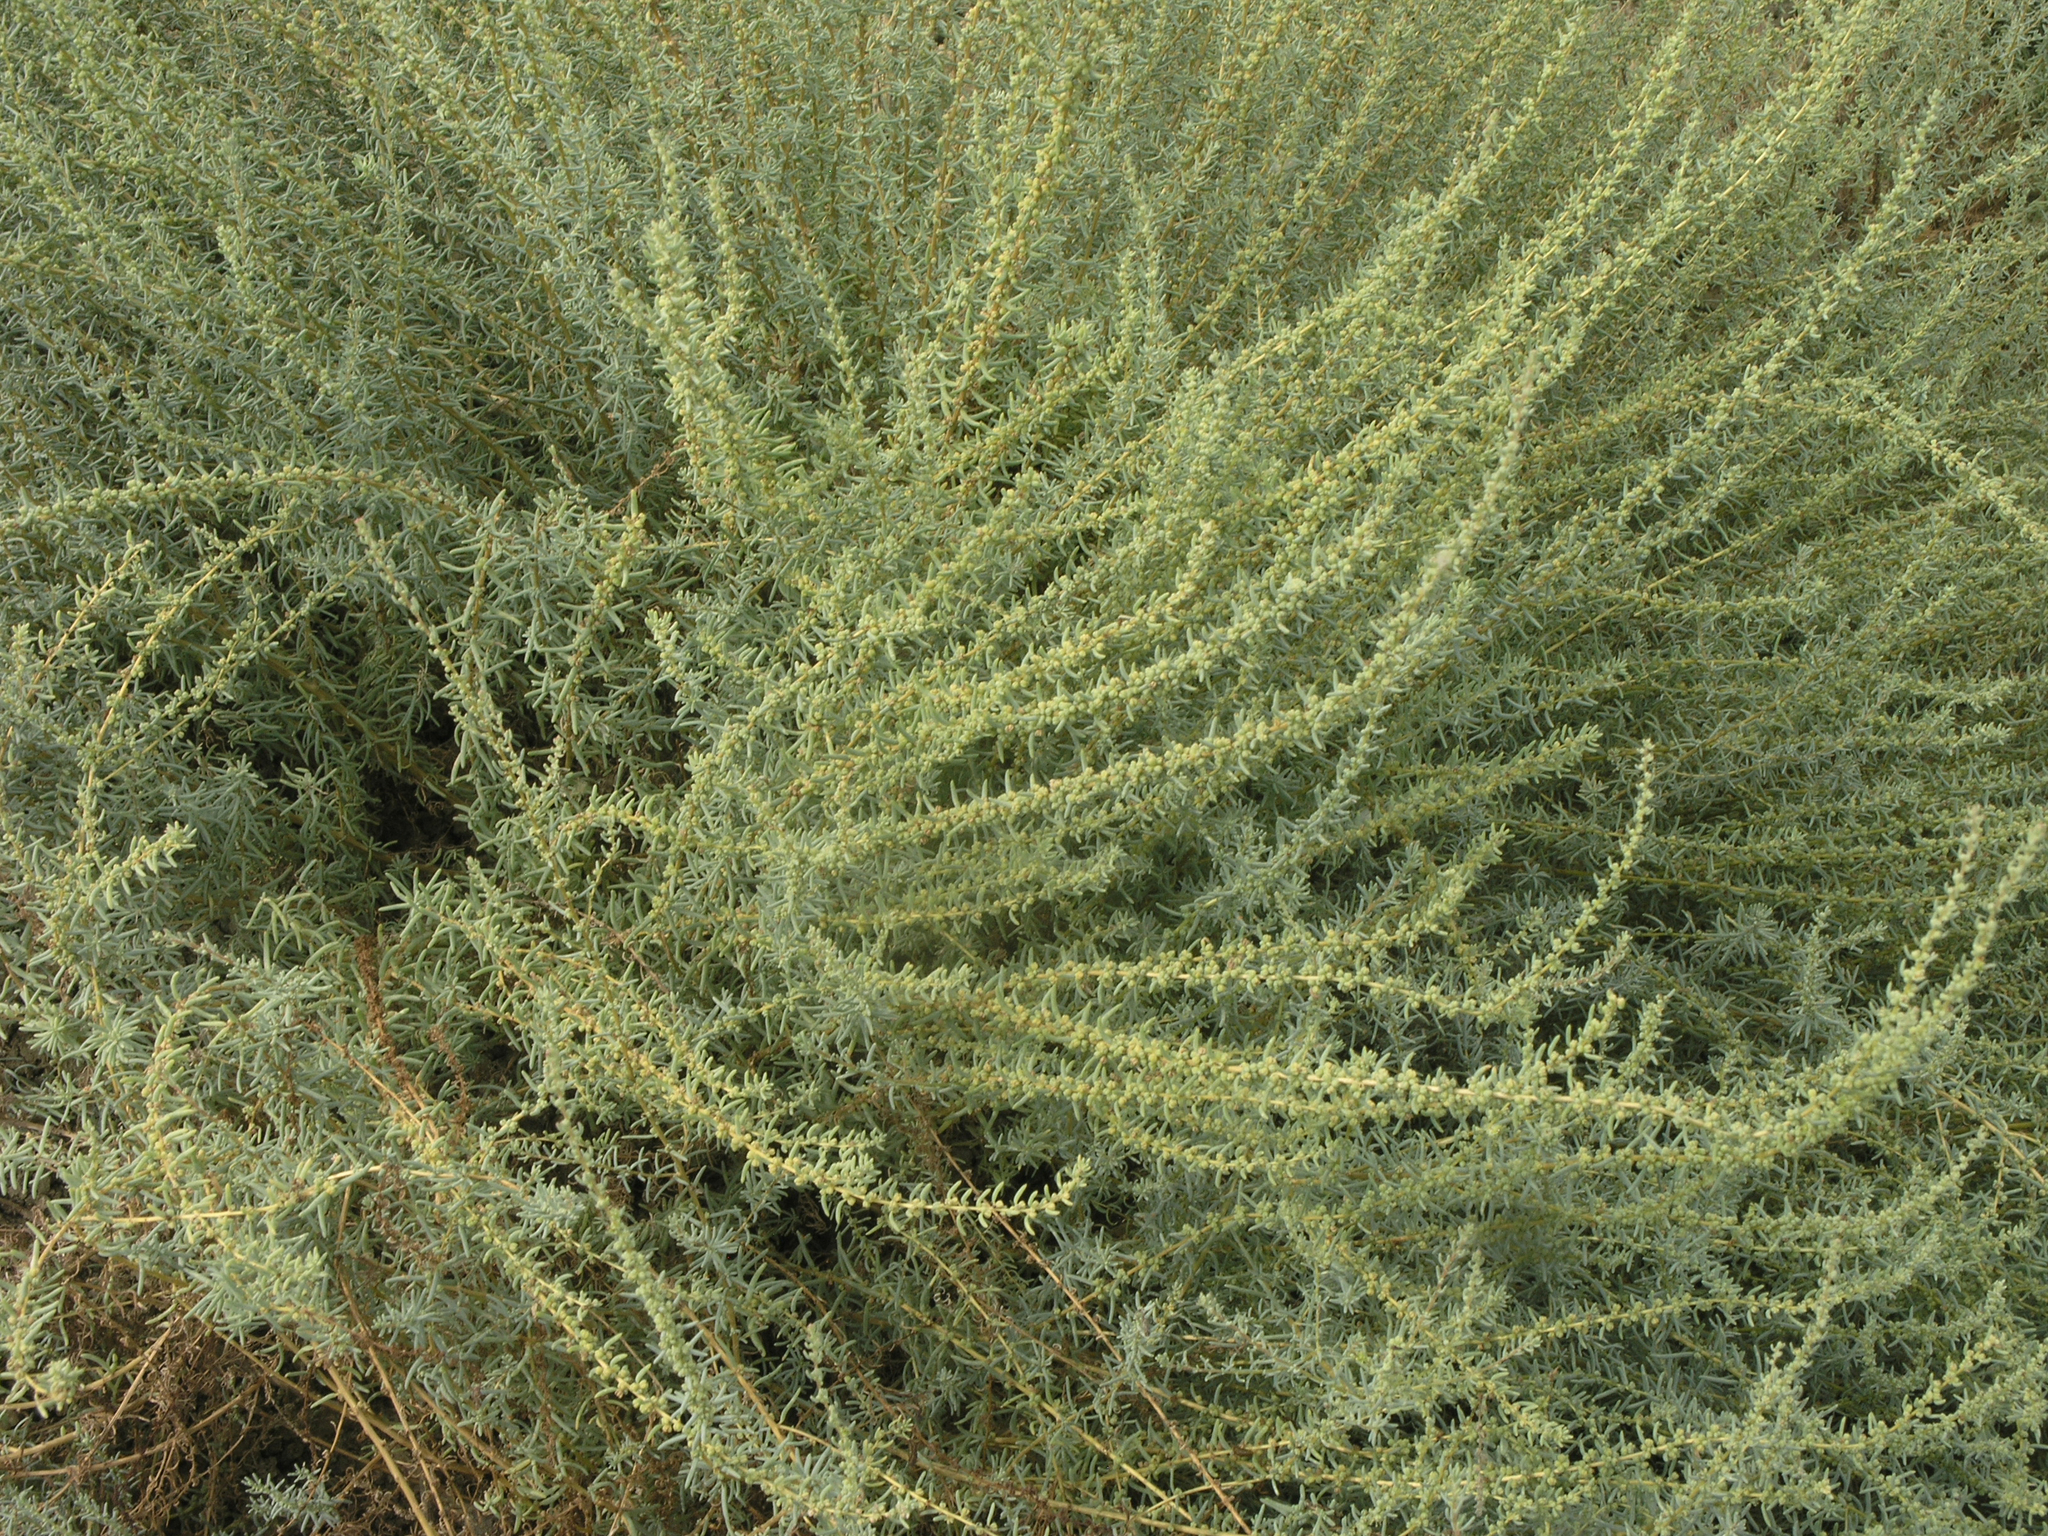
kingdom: Plantae
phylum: Tracheophyta
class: Magnoliopsida
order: Caryophyllales
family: Amaranthaceae
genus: Bassia
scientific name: Bassia scoparia
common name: Belvedere
